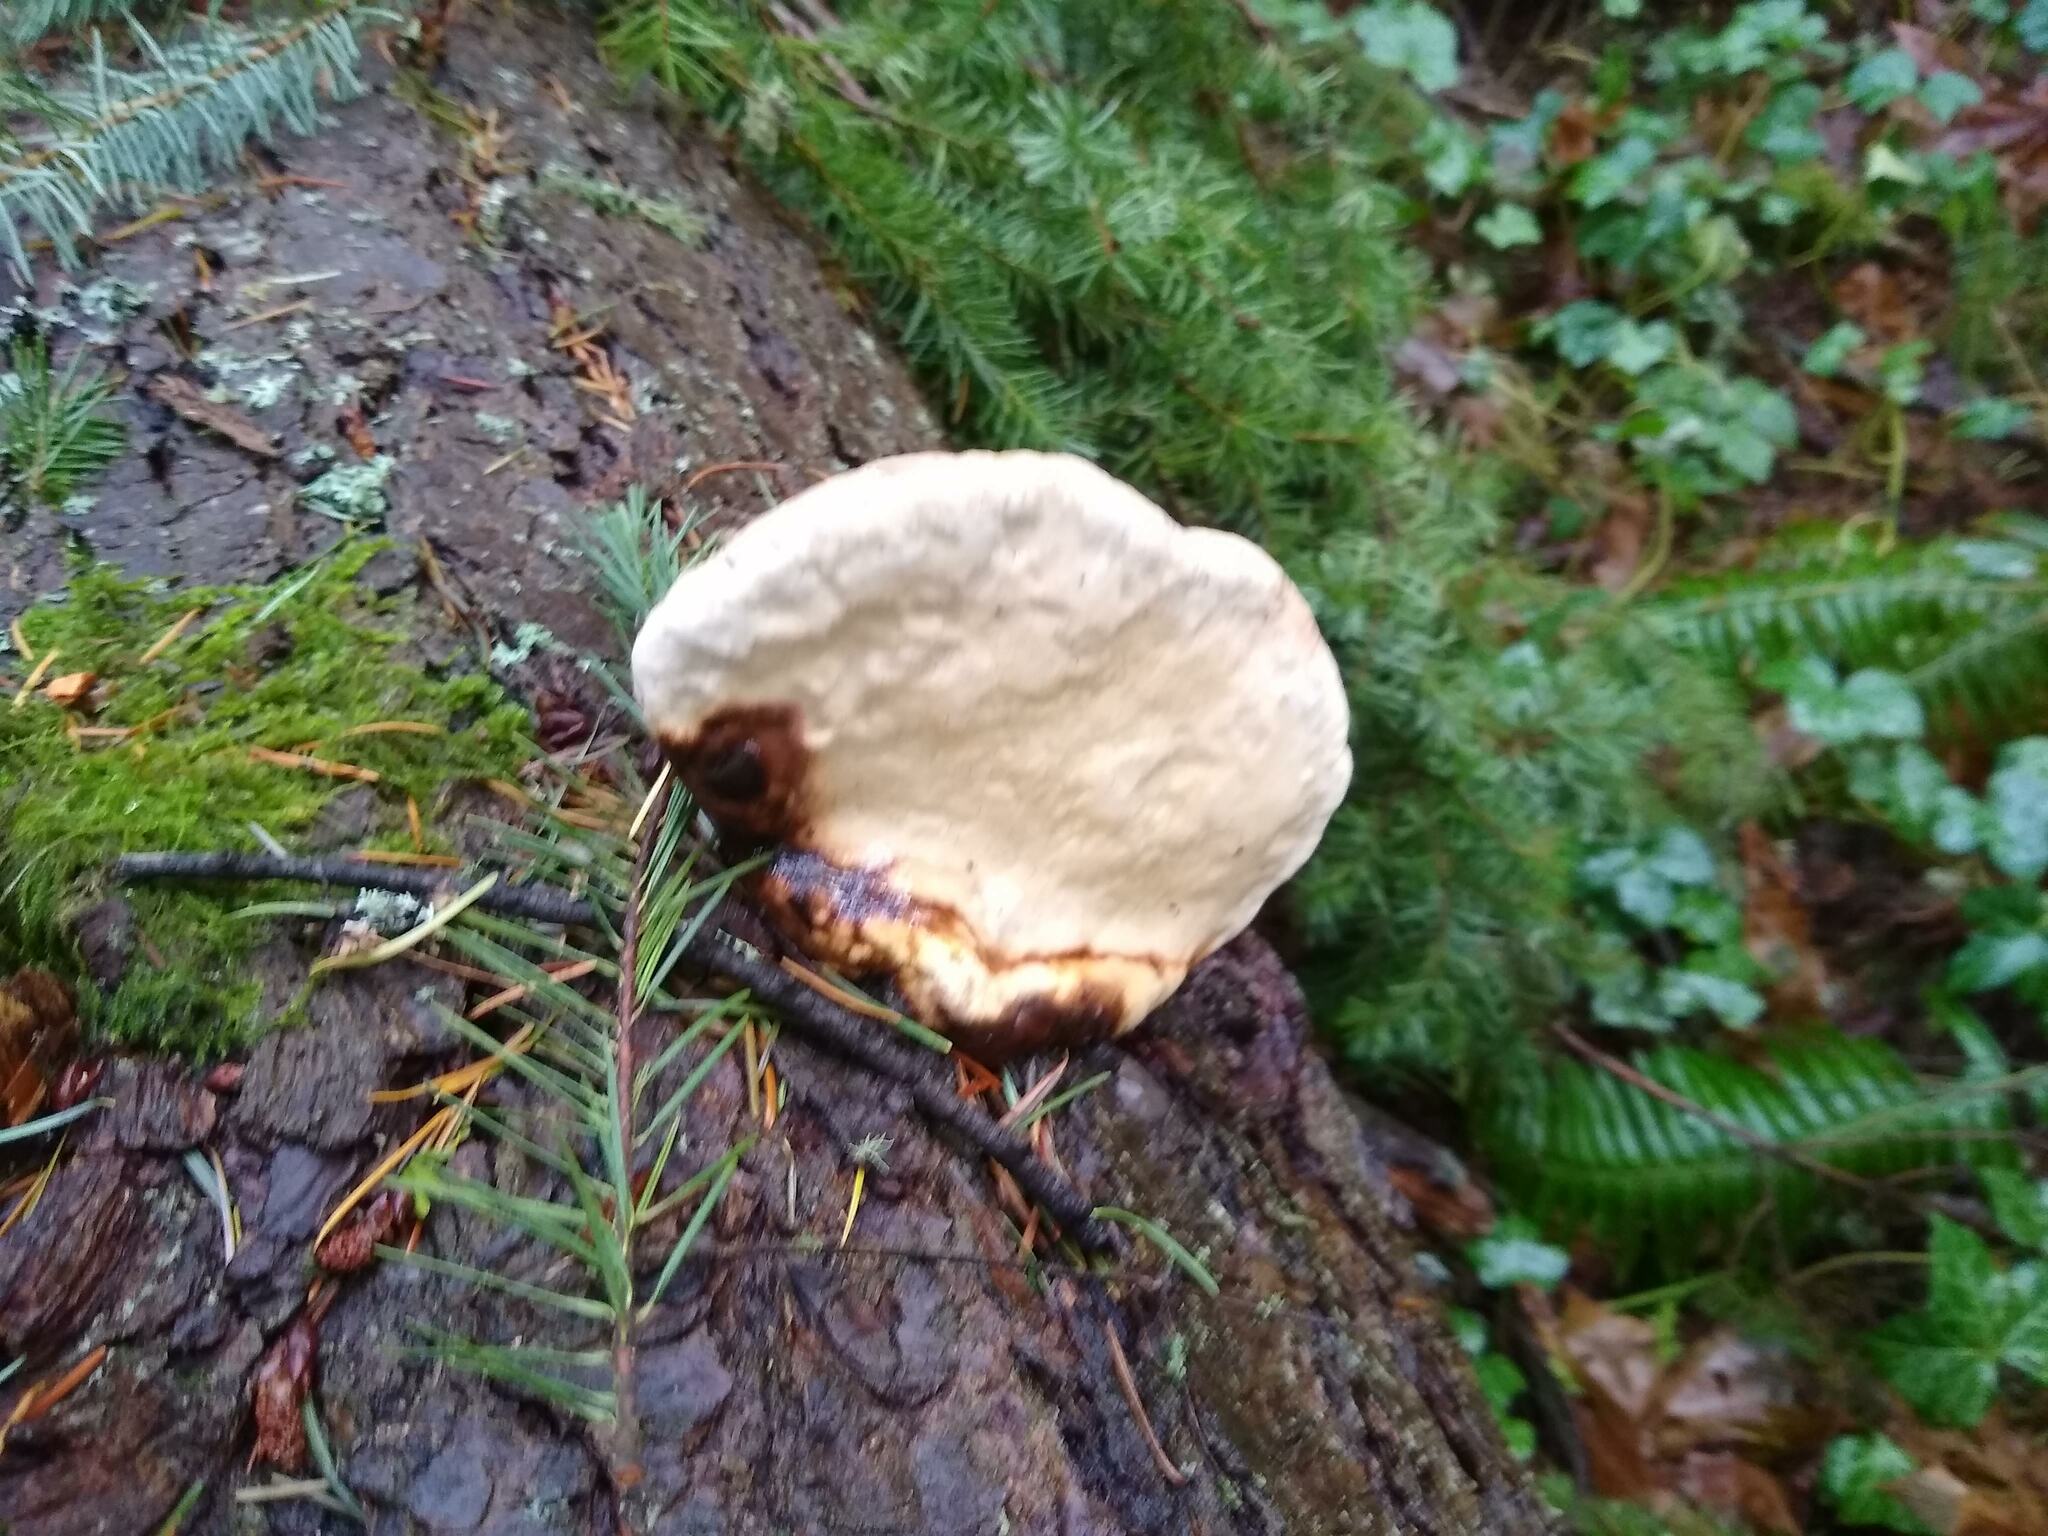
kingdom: Fungi
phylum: Basidiomycota
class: Agaricomycetes
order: Polyporales
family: Fomitopsidaceae
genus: Fomitopsis
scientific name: Fomitopsis mounceae
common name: Northern red belt
